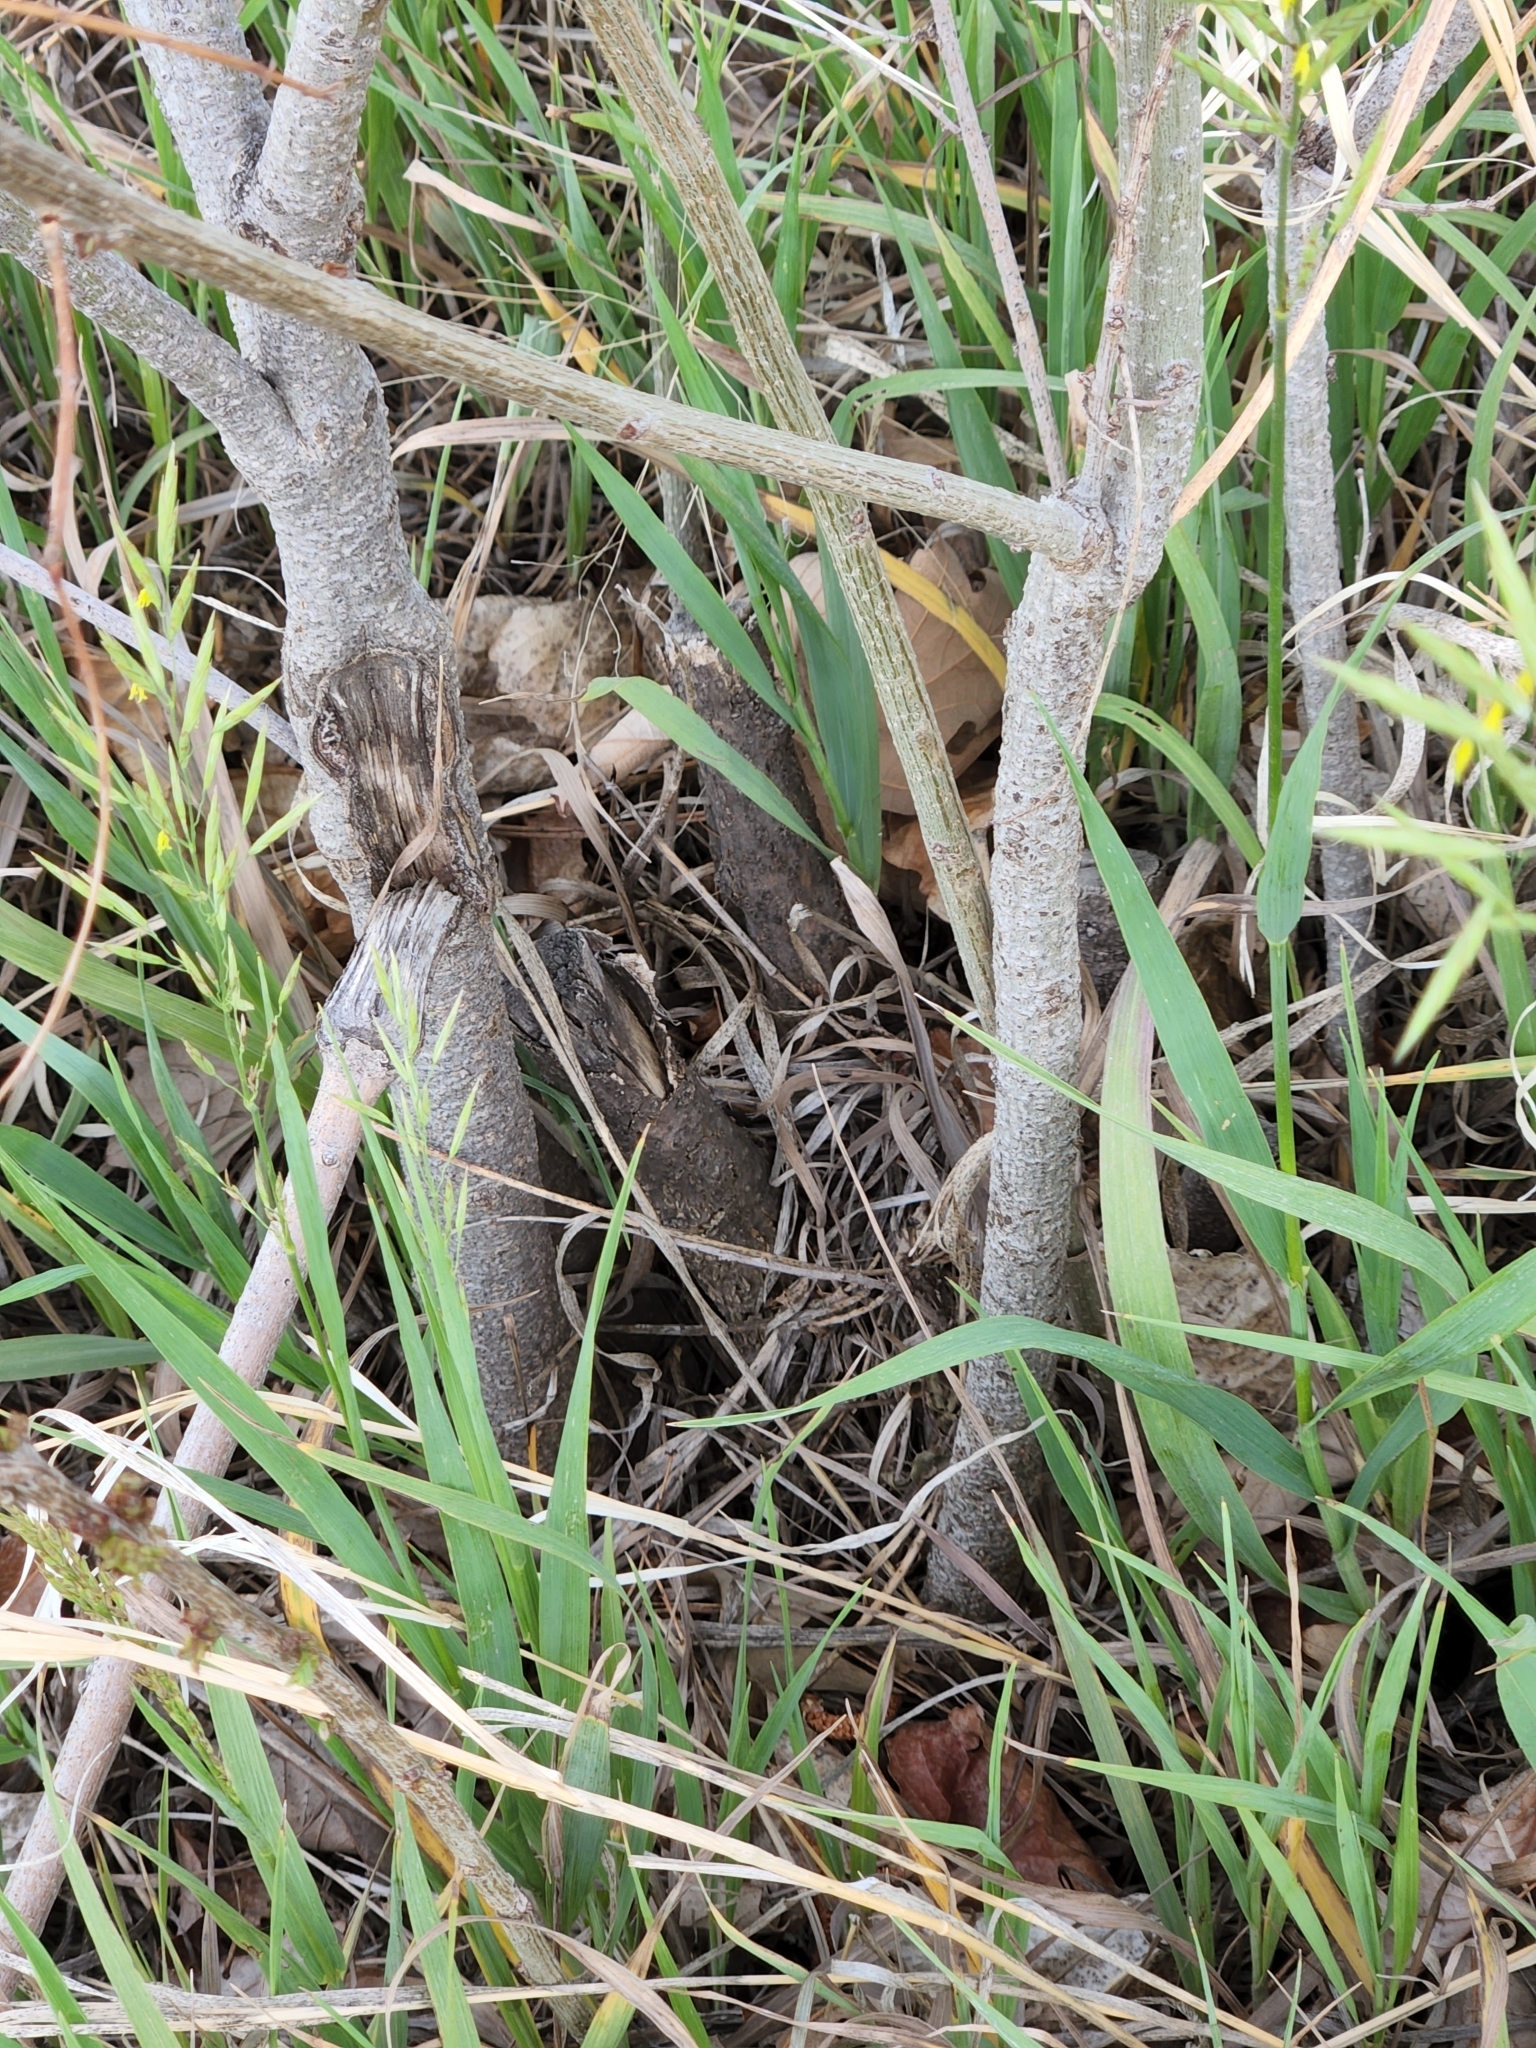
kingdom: Plantae
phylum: Tracheophyta
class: Magnoliopsida
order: Fabales
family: Fabaceae
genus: Amorpha
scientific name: Amorpha fruticosa
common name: False indigo
